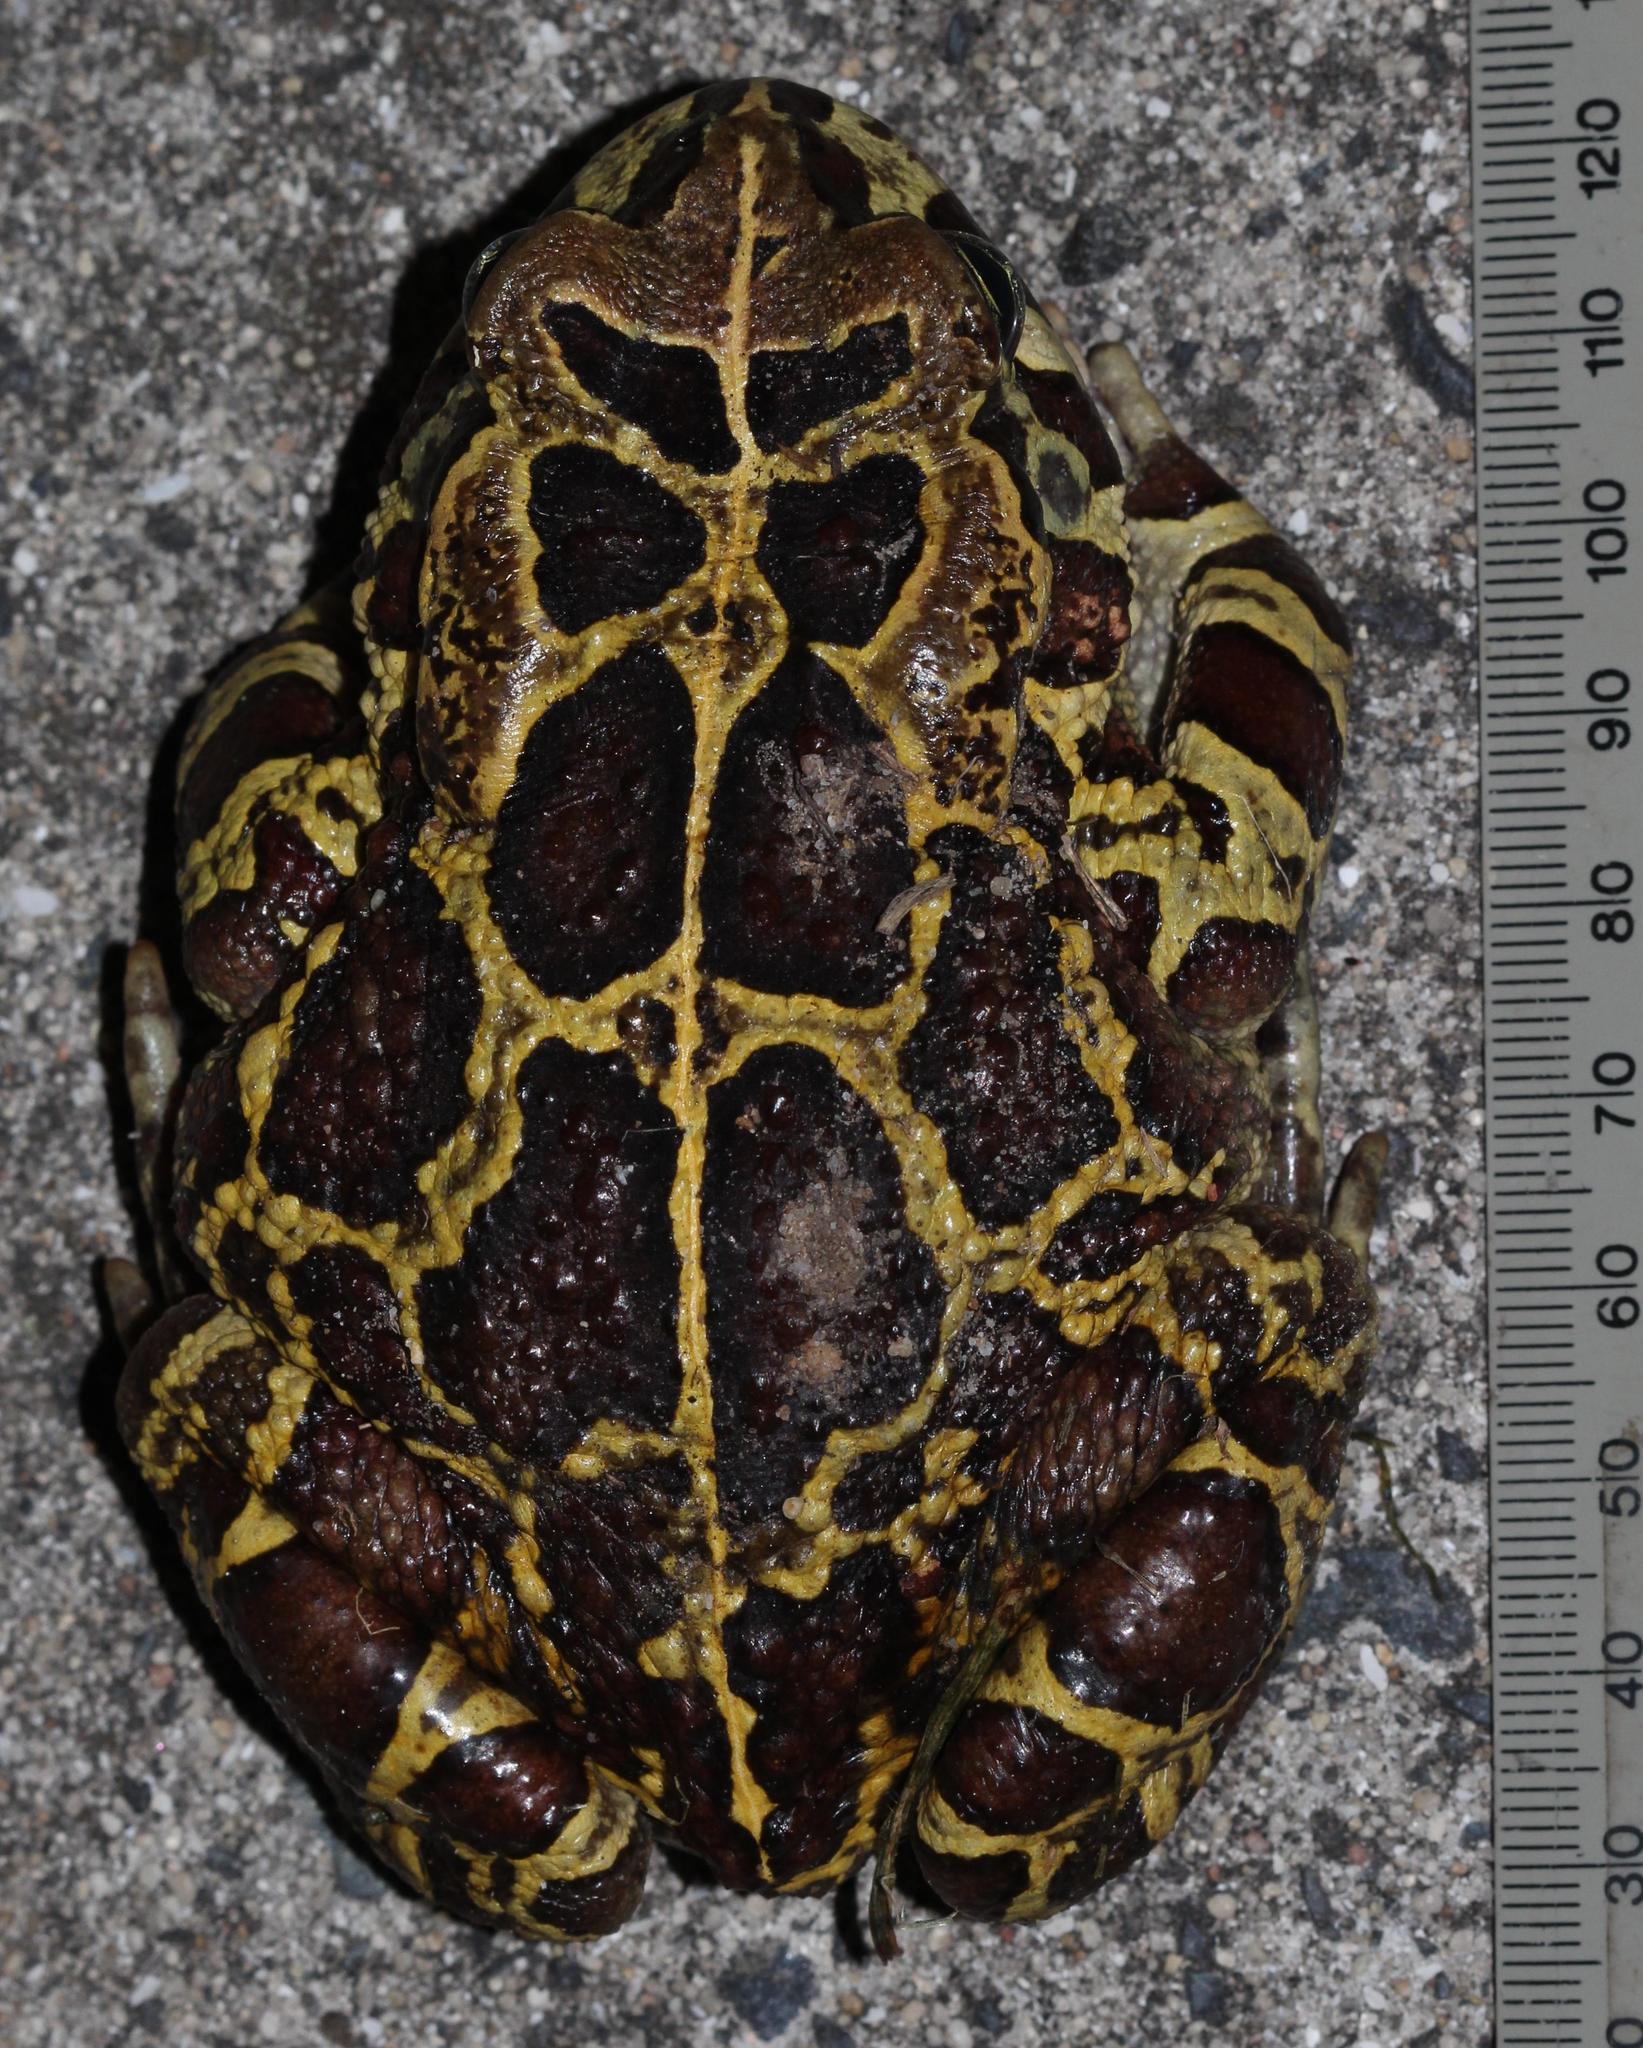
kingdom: Animalia
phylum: Chordata
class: Amphibia
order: Anura
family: Bufonidae
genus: Sclerophrys
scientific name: Sclerophrys pantherina
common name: Panther toad
